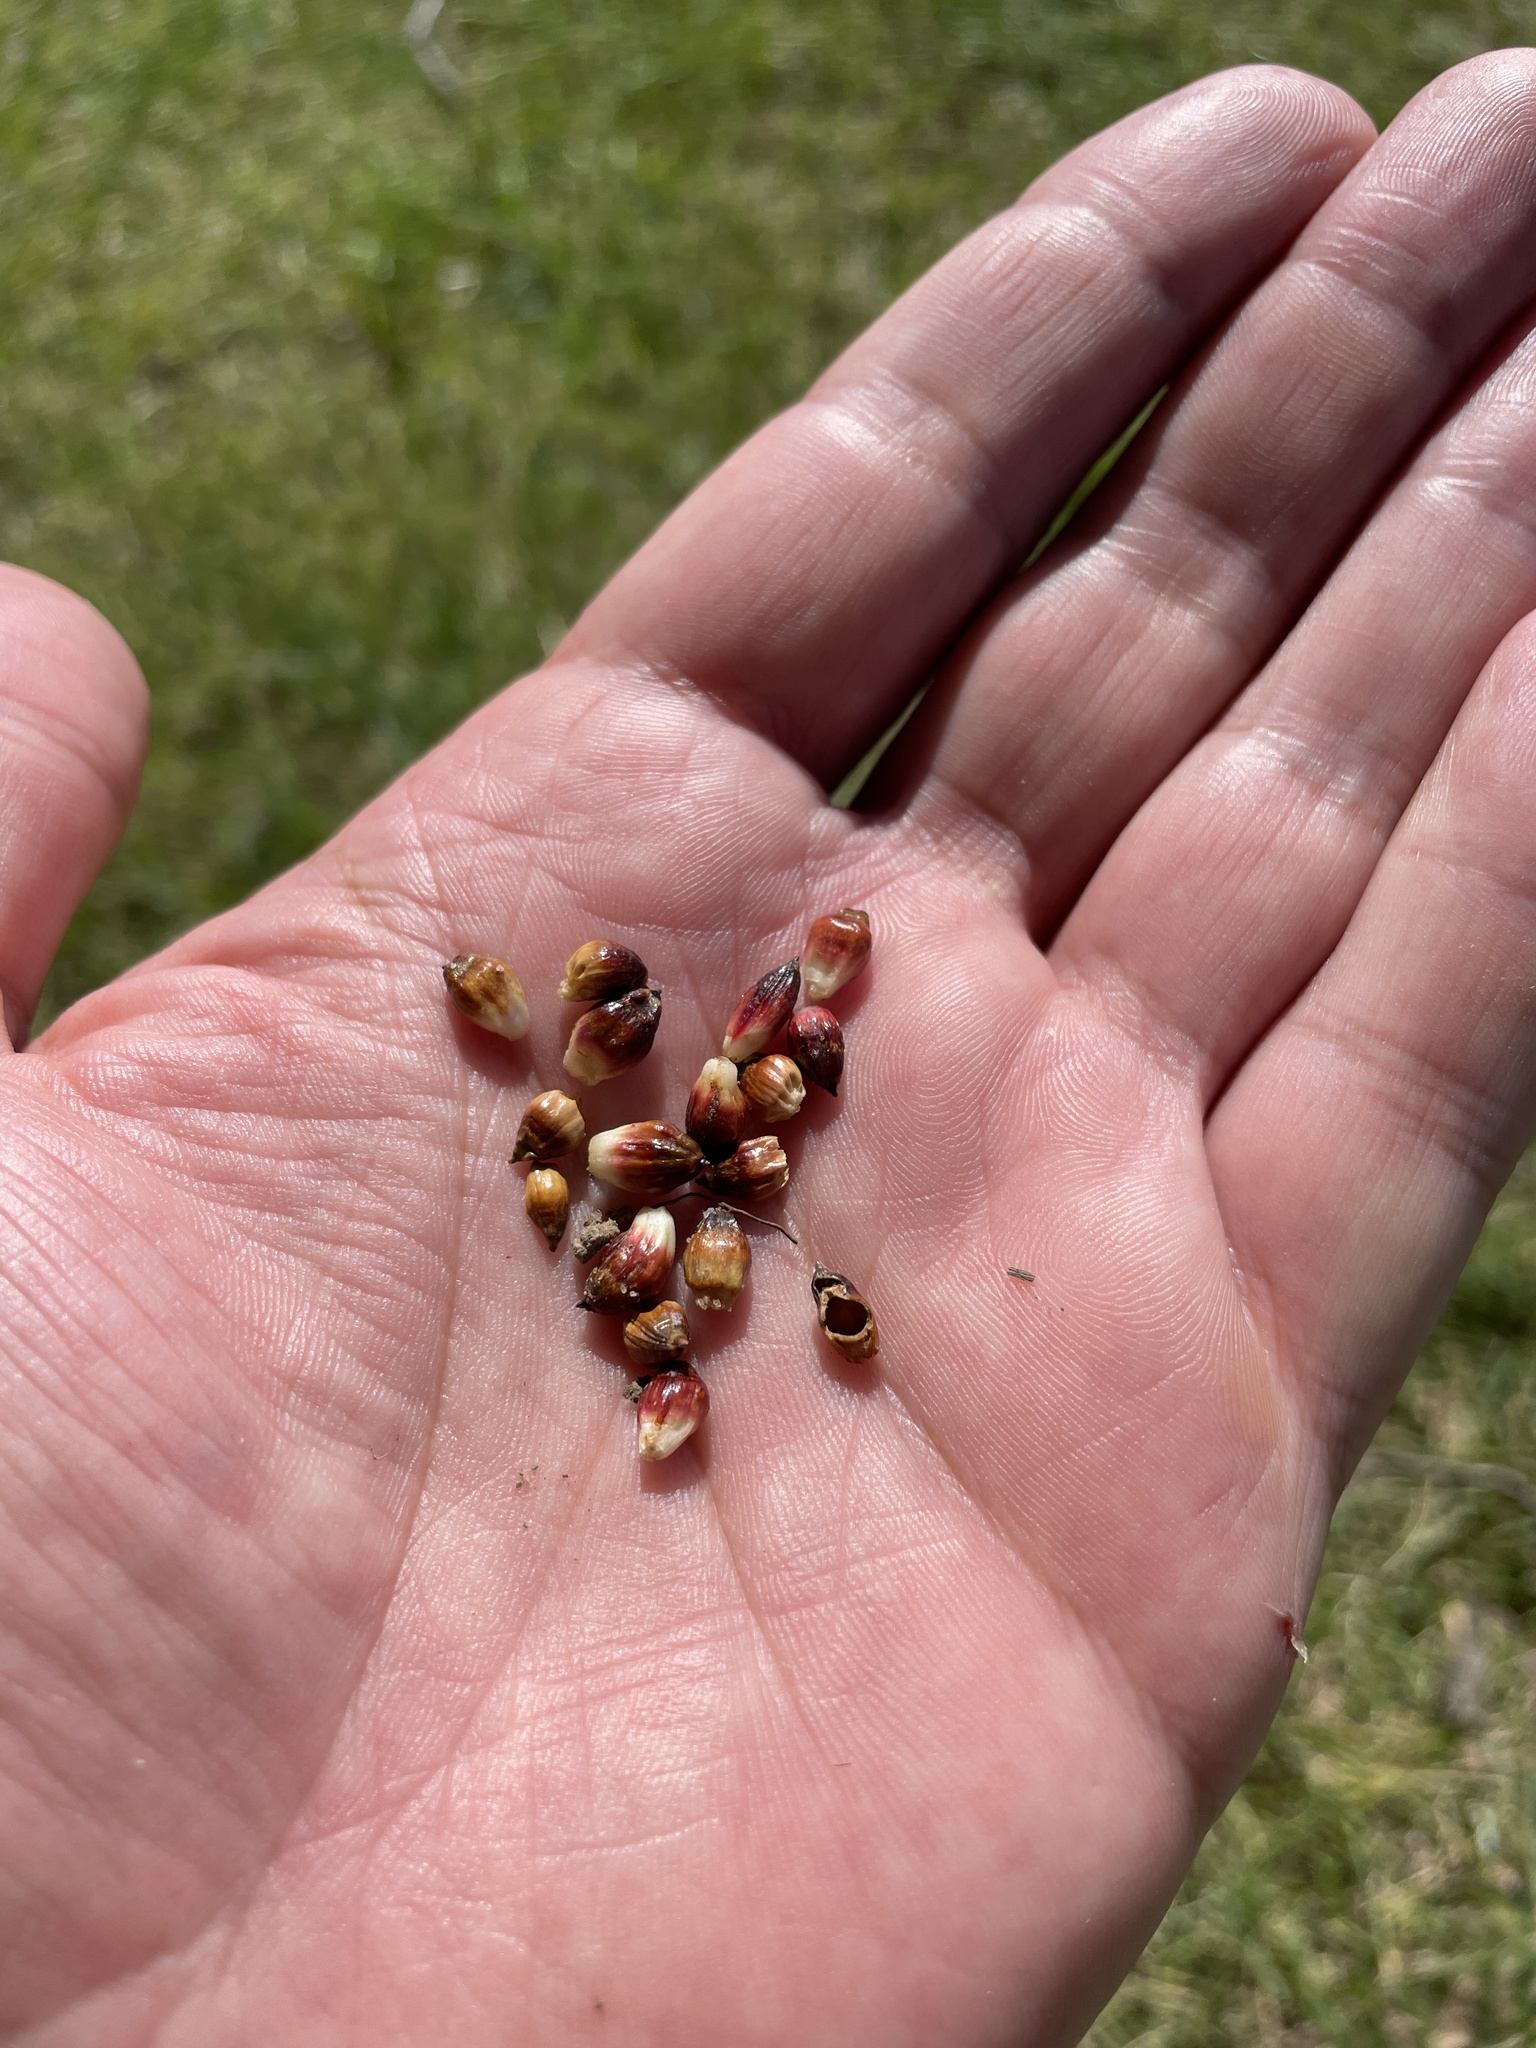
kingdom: Animalia
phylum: Arthropoda
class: Insecta
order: Hymenoptera
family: Cynipidae
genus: Callirhytis
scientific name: Callirhytis
